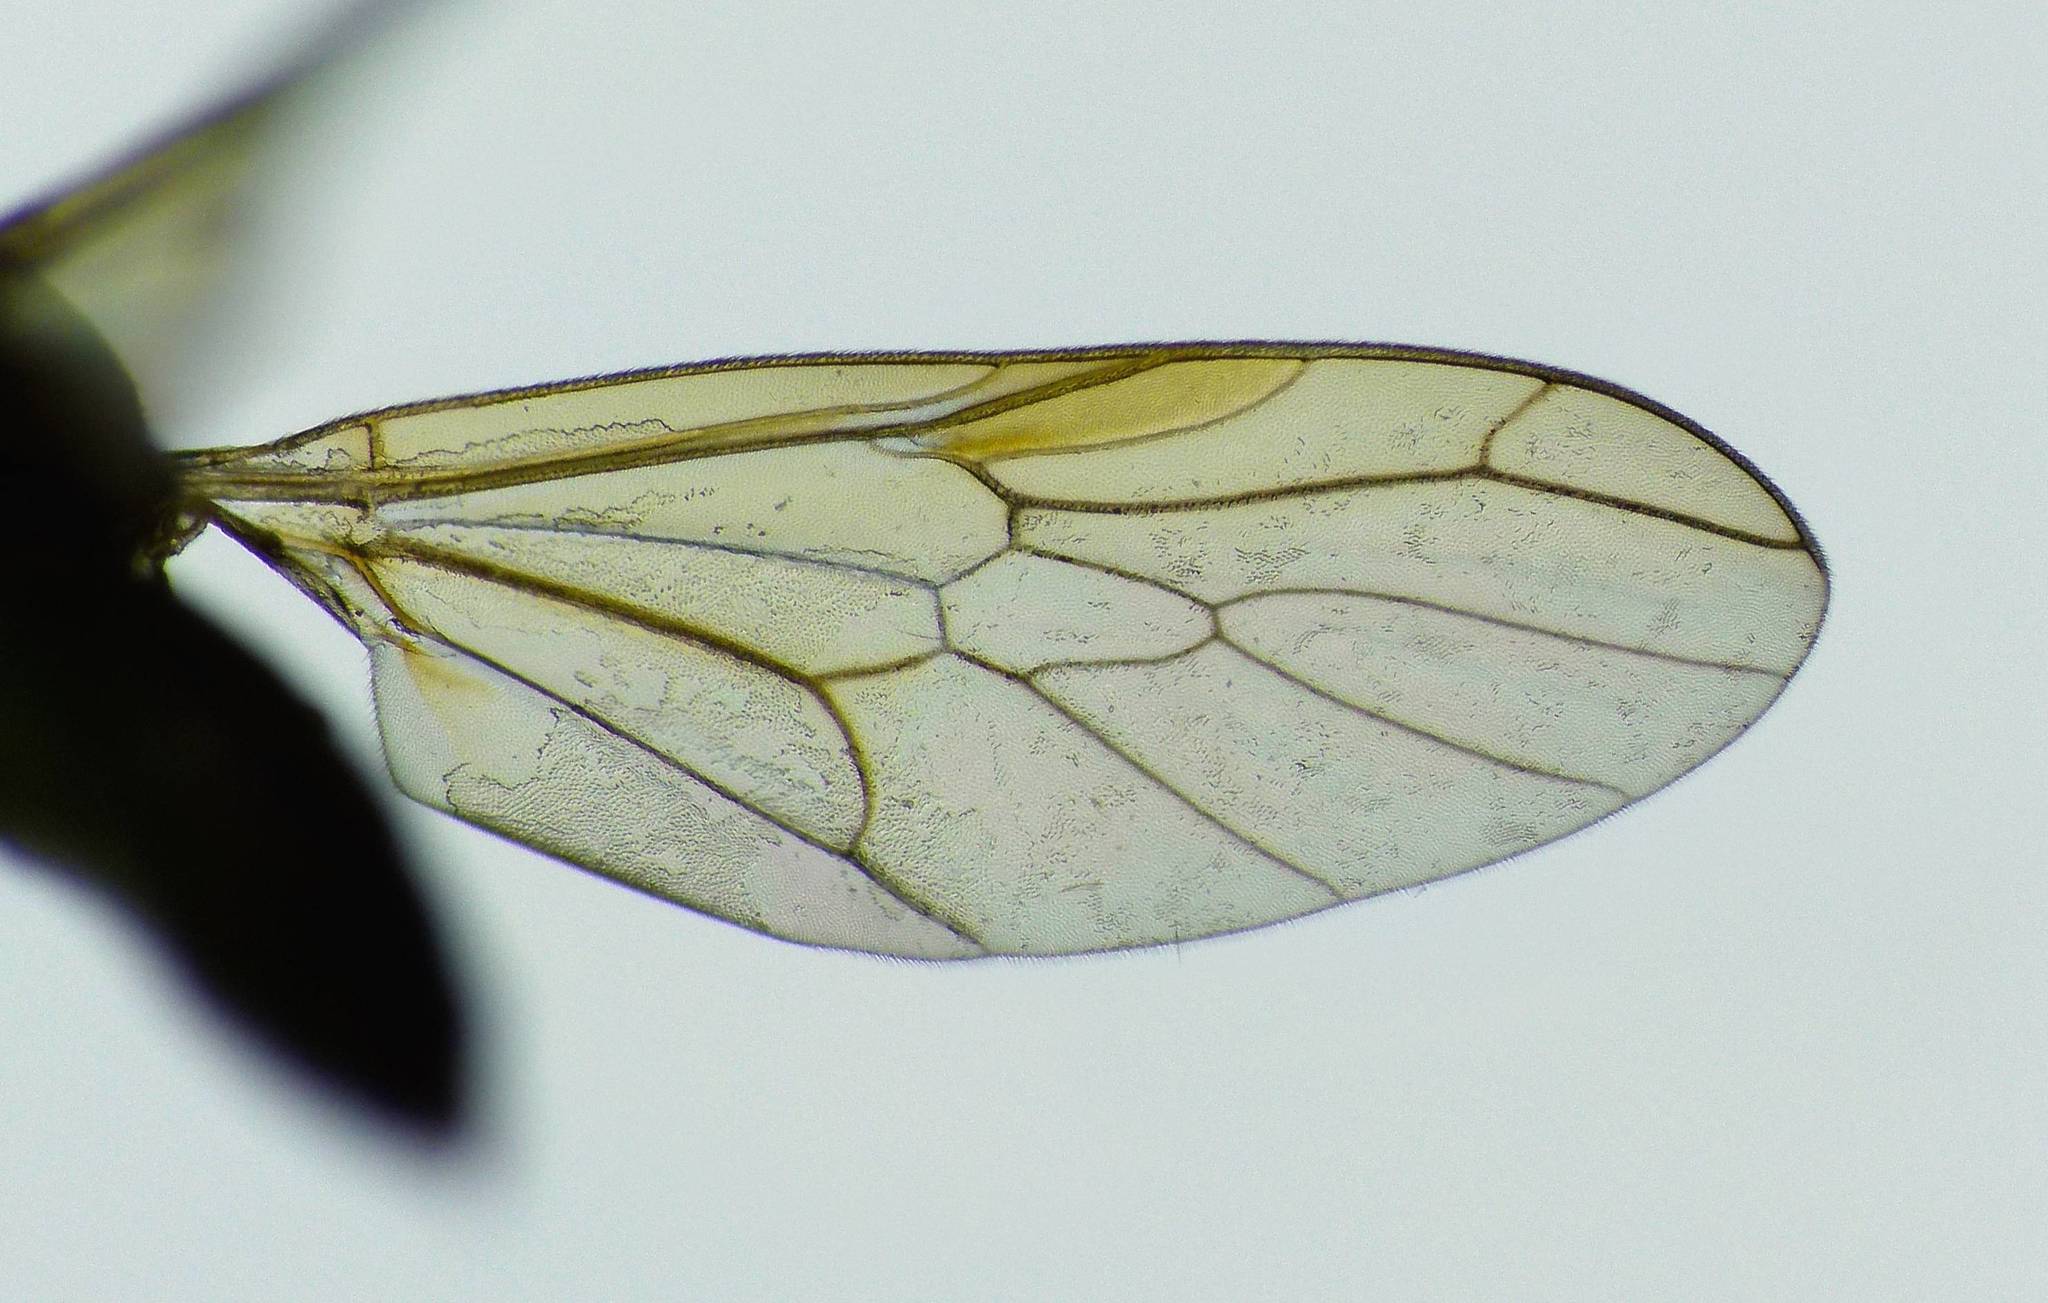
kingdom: Animalia
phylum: Arthropoda
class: Insecta
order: Diptera
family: Stratiomyidae
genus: Australoberis
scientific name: Australoberis refugians
